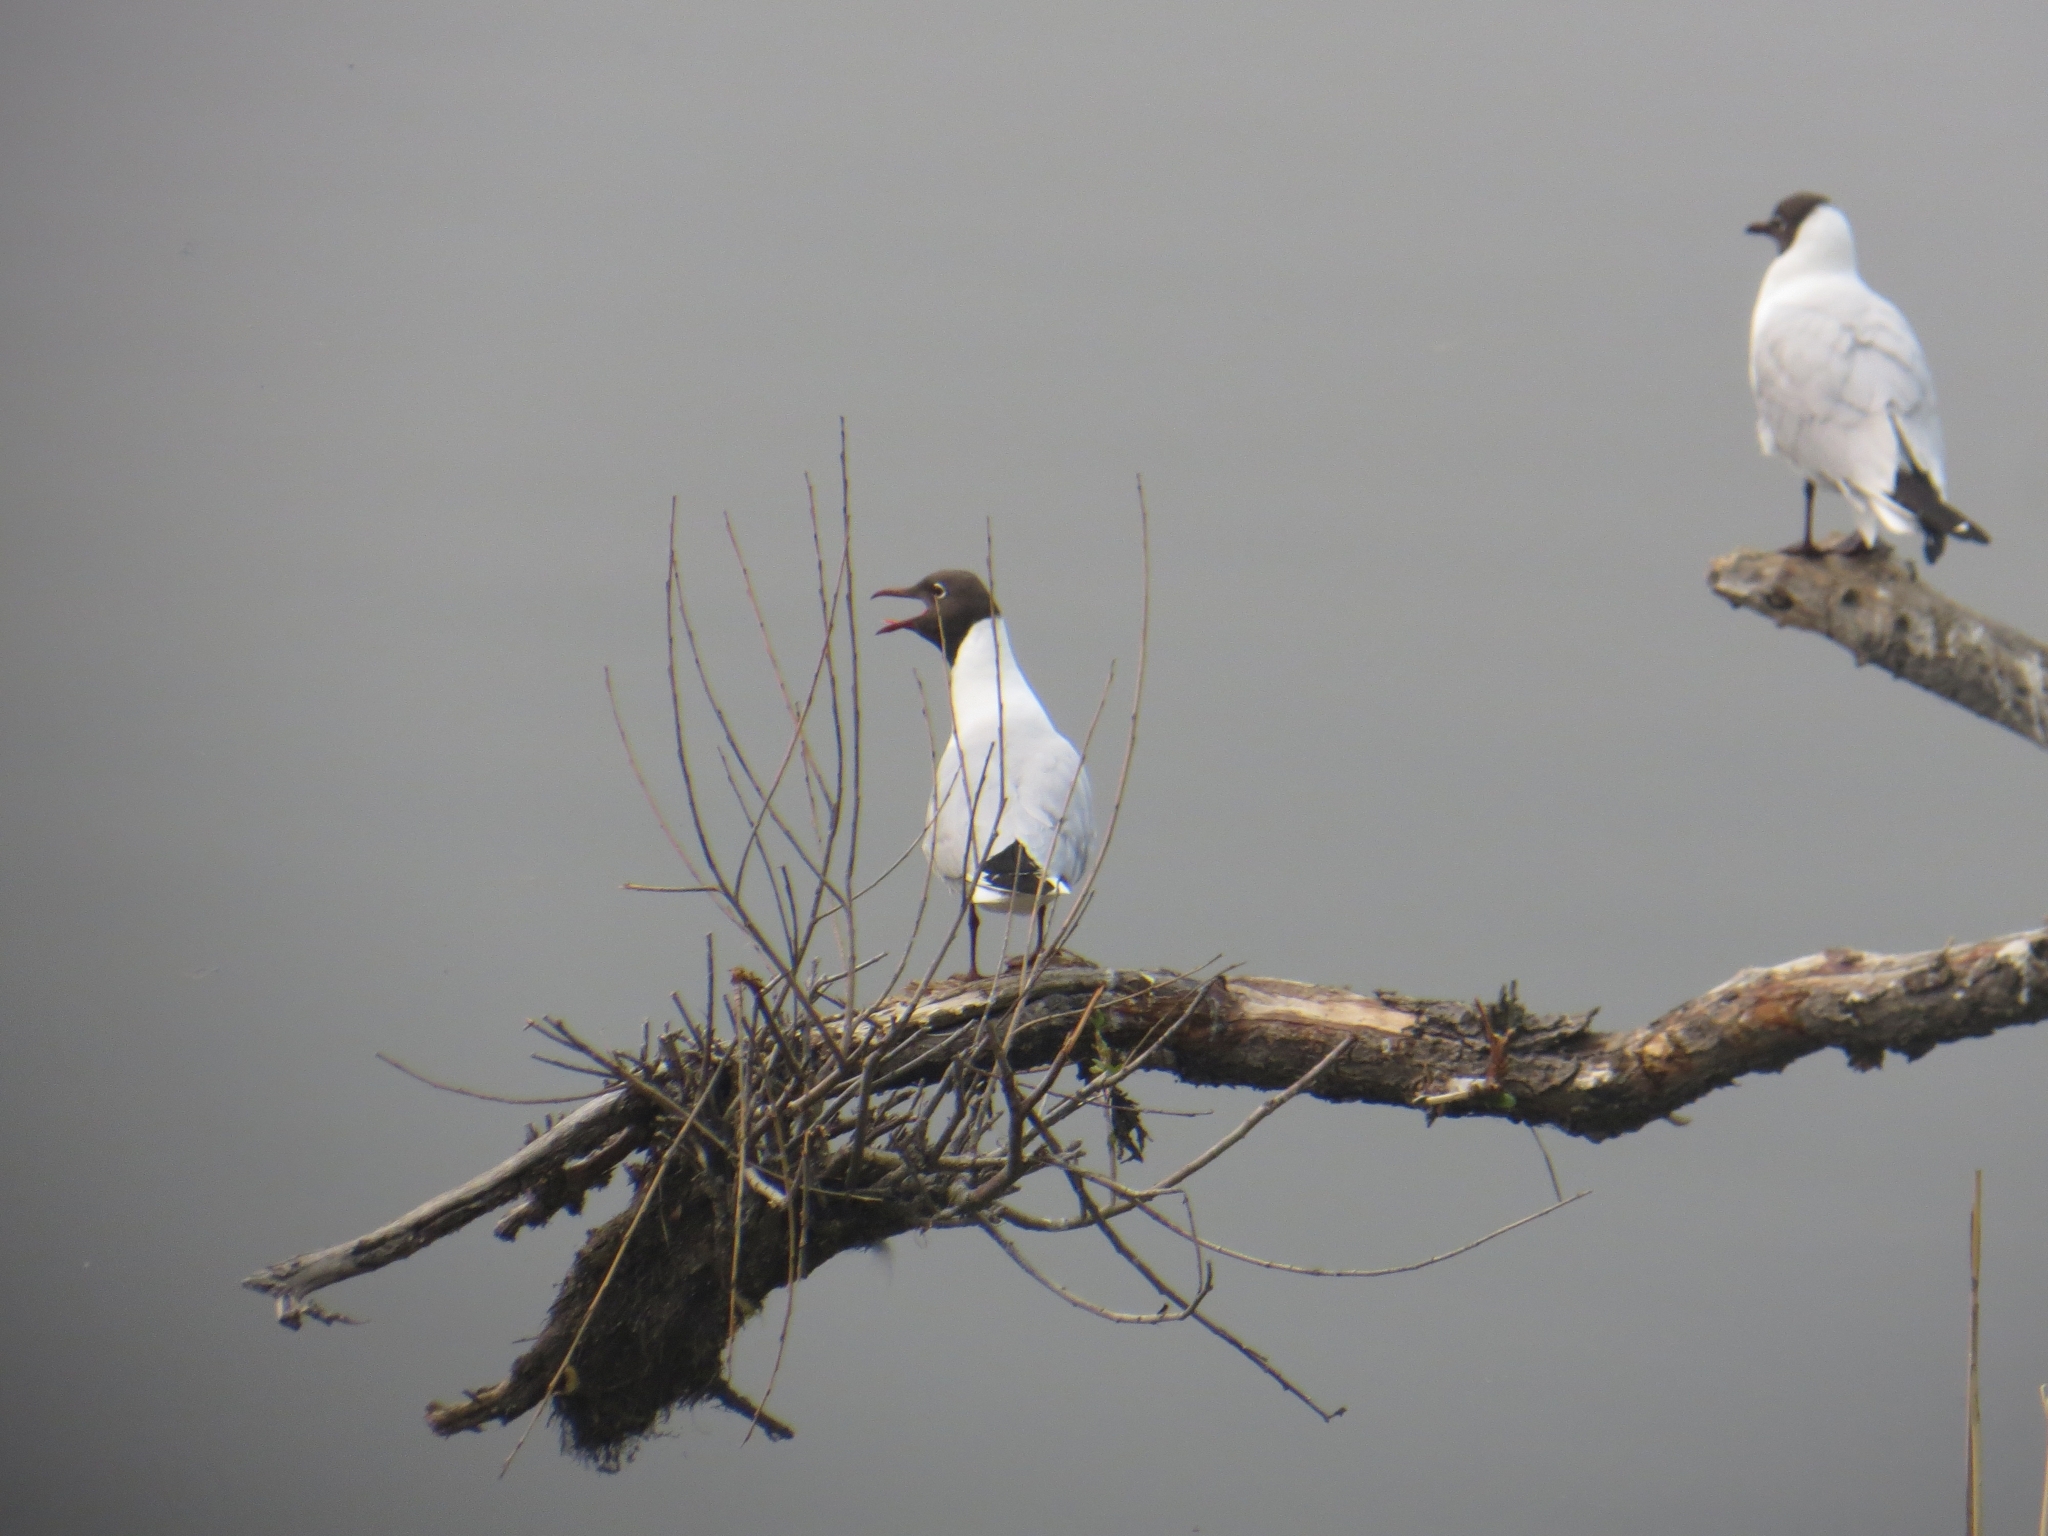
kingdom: Animalia
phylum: Chordata
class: Aves
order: Charadriiformes
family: Laridae
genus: Chroicocephalus
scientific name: Chroicocephalus ridibundus
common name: Black-headed gull
